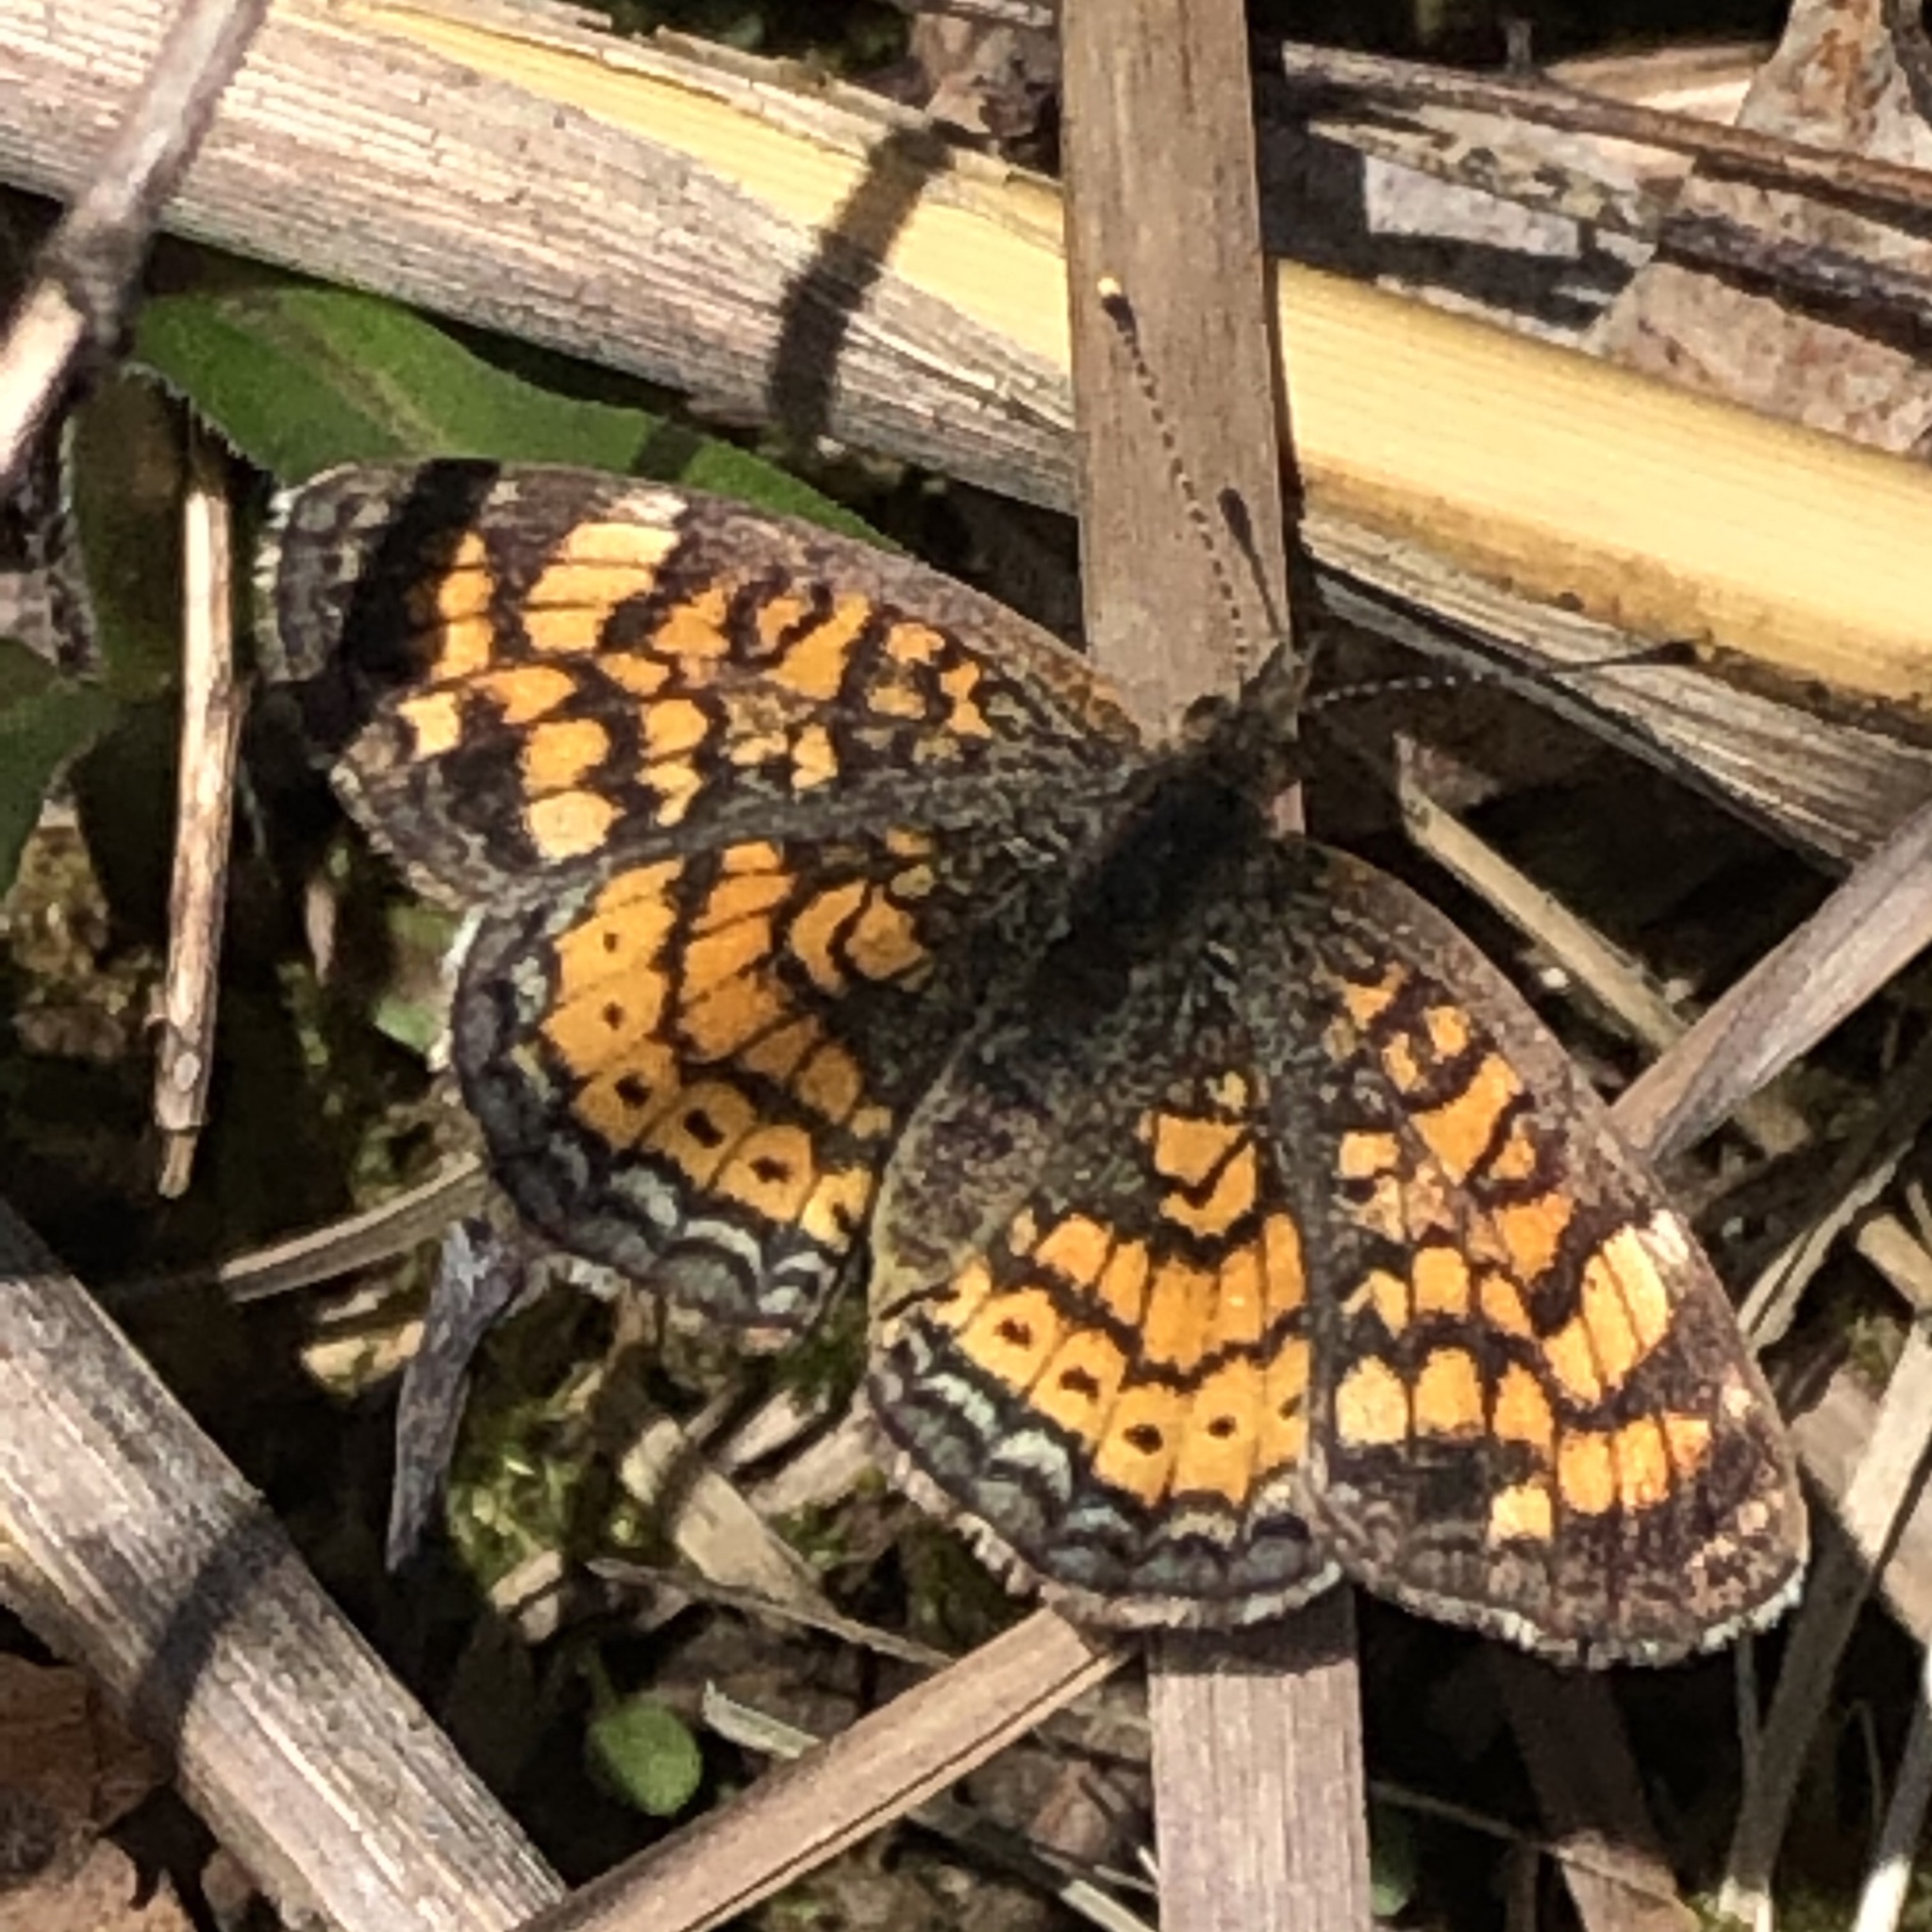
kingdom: Animalia
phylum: Arthropoda
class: Insecta
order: Lepidoptera
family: Nymphalidae
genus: Phyciodes
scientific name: Phyciodes tharos
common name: Pearl crescent
